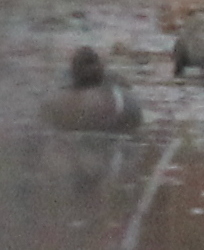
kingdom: Animalia
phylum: Chordata
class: Aves
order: Anseriformes
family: Anatidae
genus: Anas
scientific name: Anas crecca
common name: Eurasian teal
